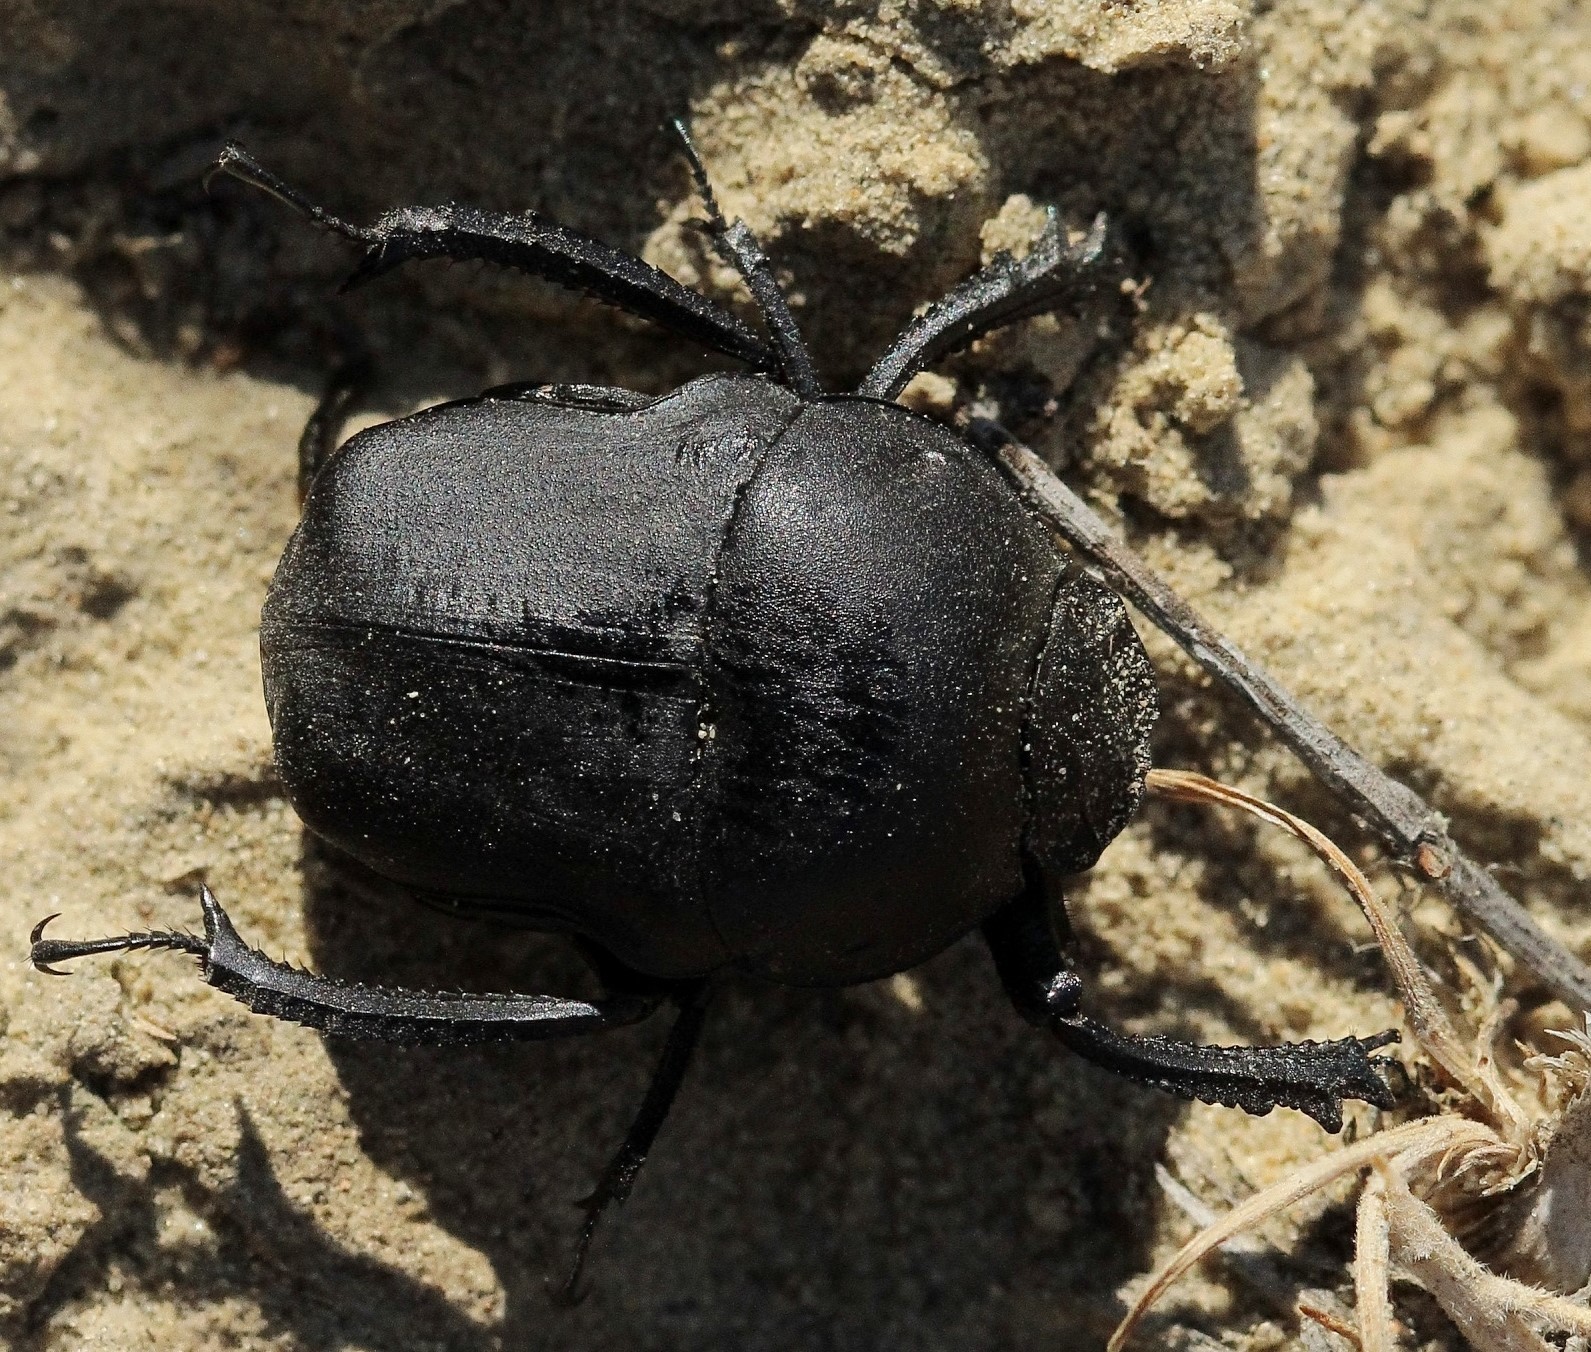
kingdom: Animalia
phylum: Arthropoda
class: Insecta
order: Coleoptera
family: Scarabaeidae
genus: Gymnopleurus
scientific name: Gymnopleurus mopsus
